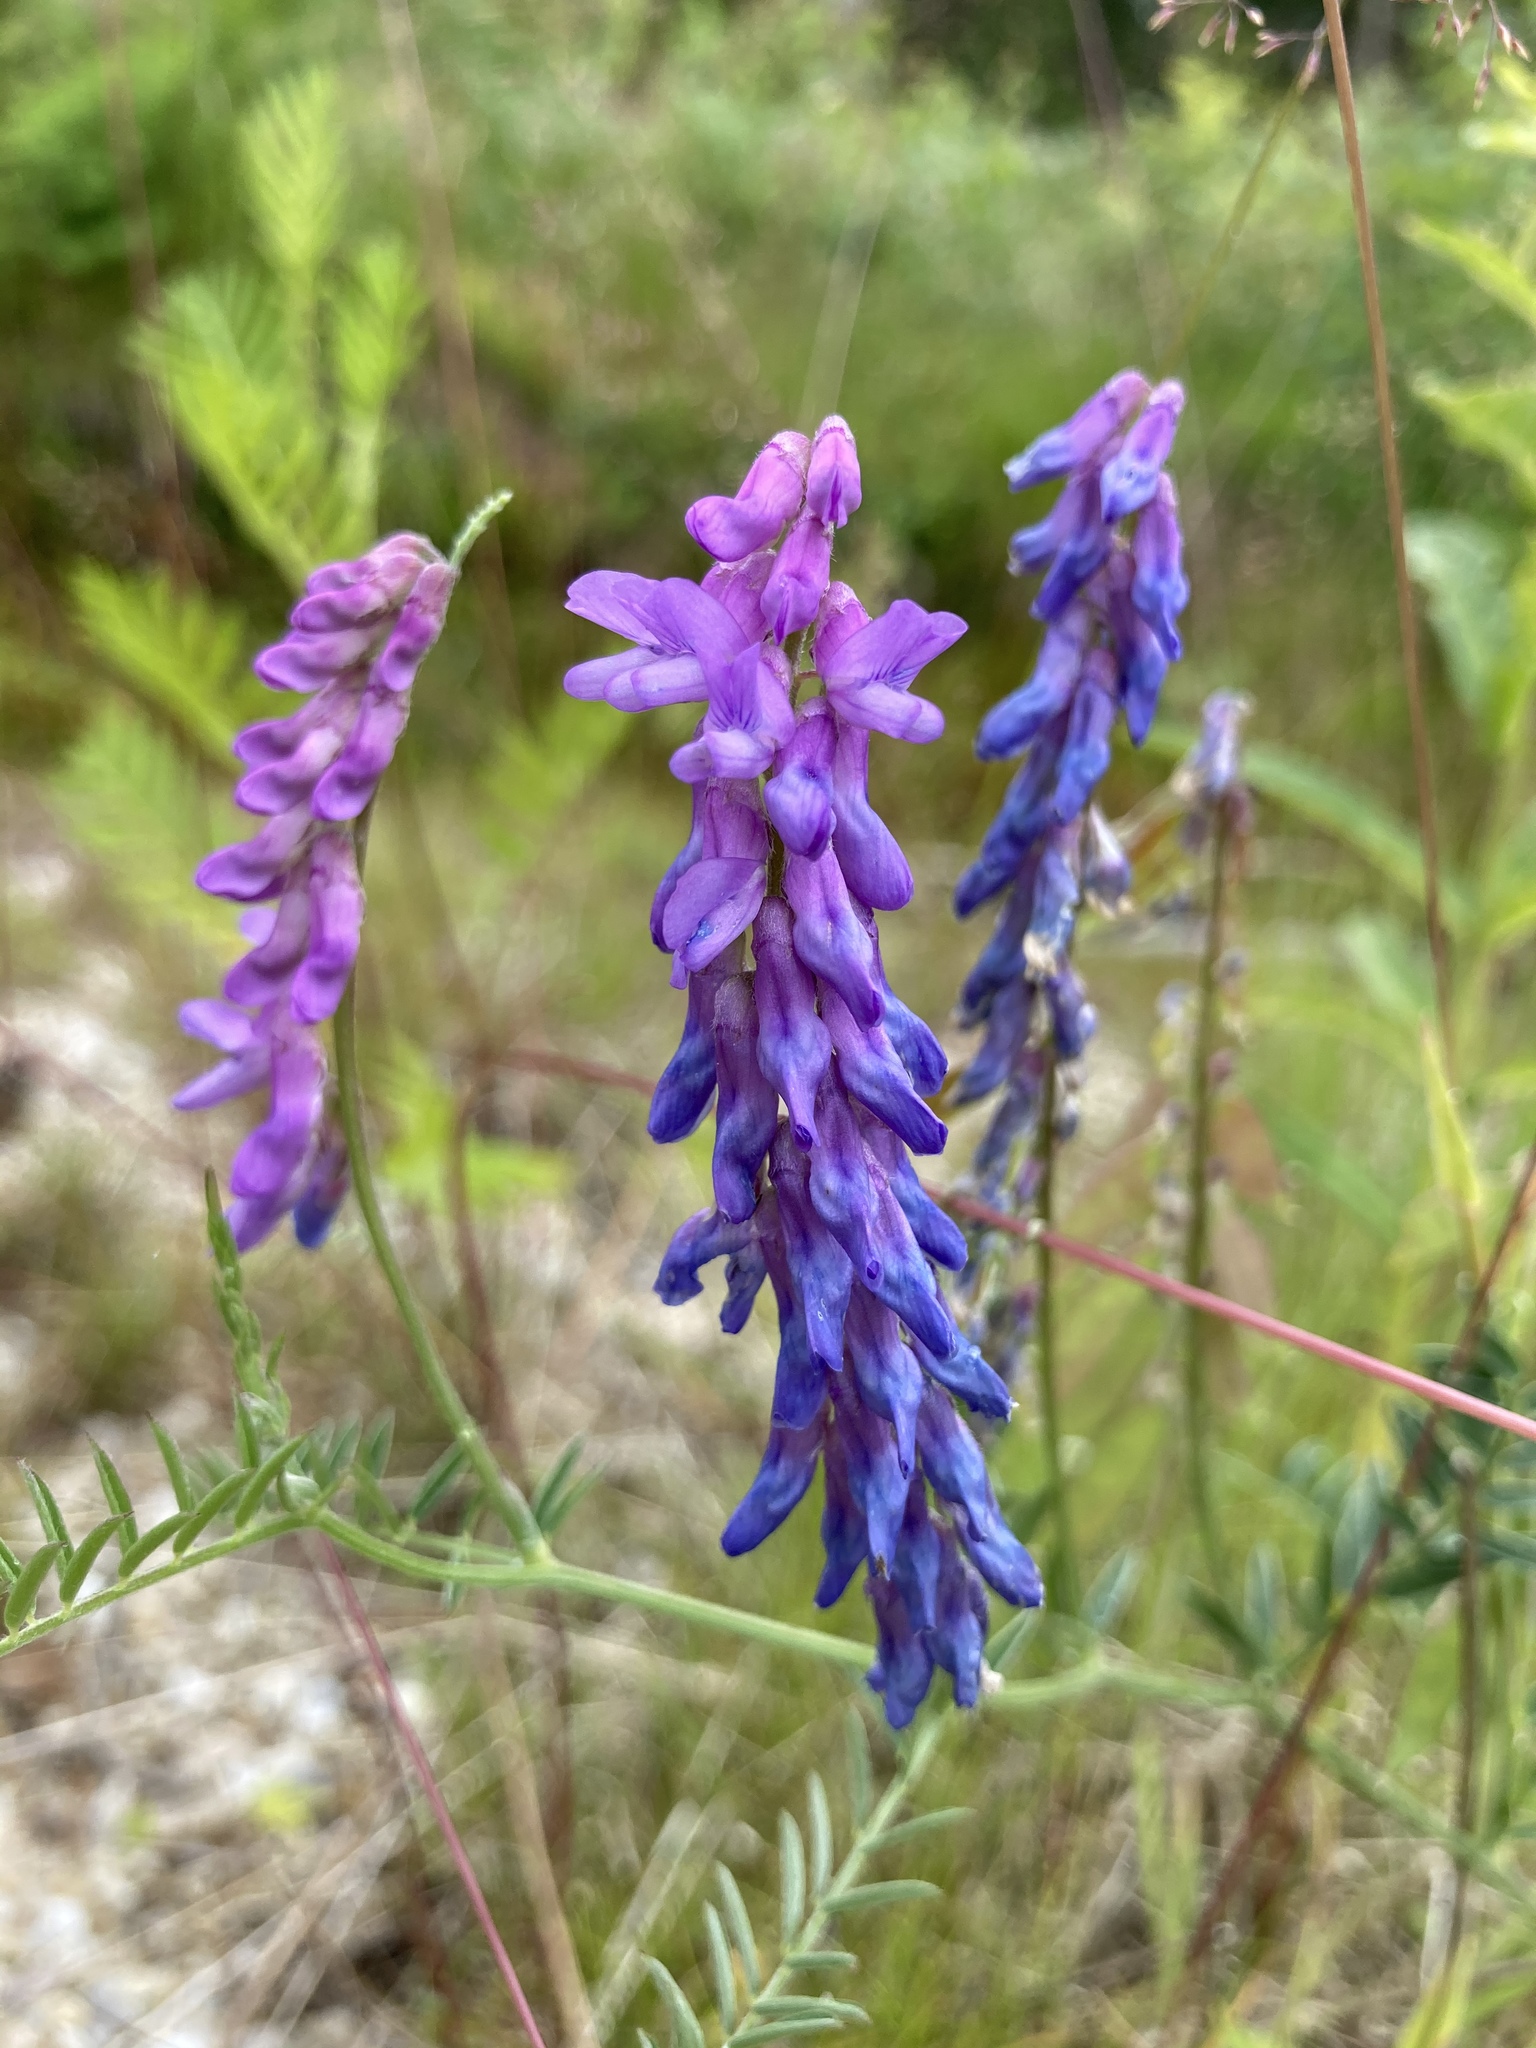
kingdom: Plantae
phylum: Tracheophyta
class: Magnoliopsida
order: Fabales
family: Fabaceae
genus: Vicia
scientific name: Vicia cracca
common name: Bird vetch
